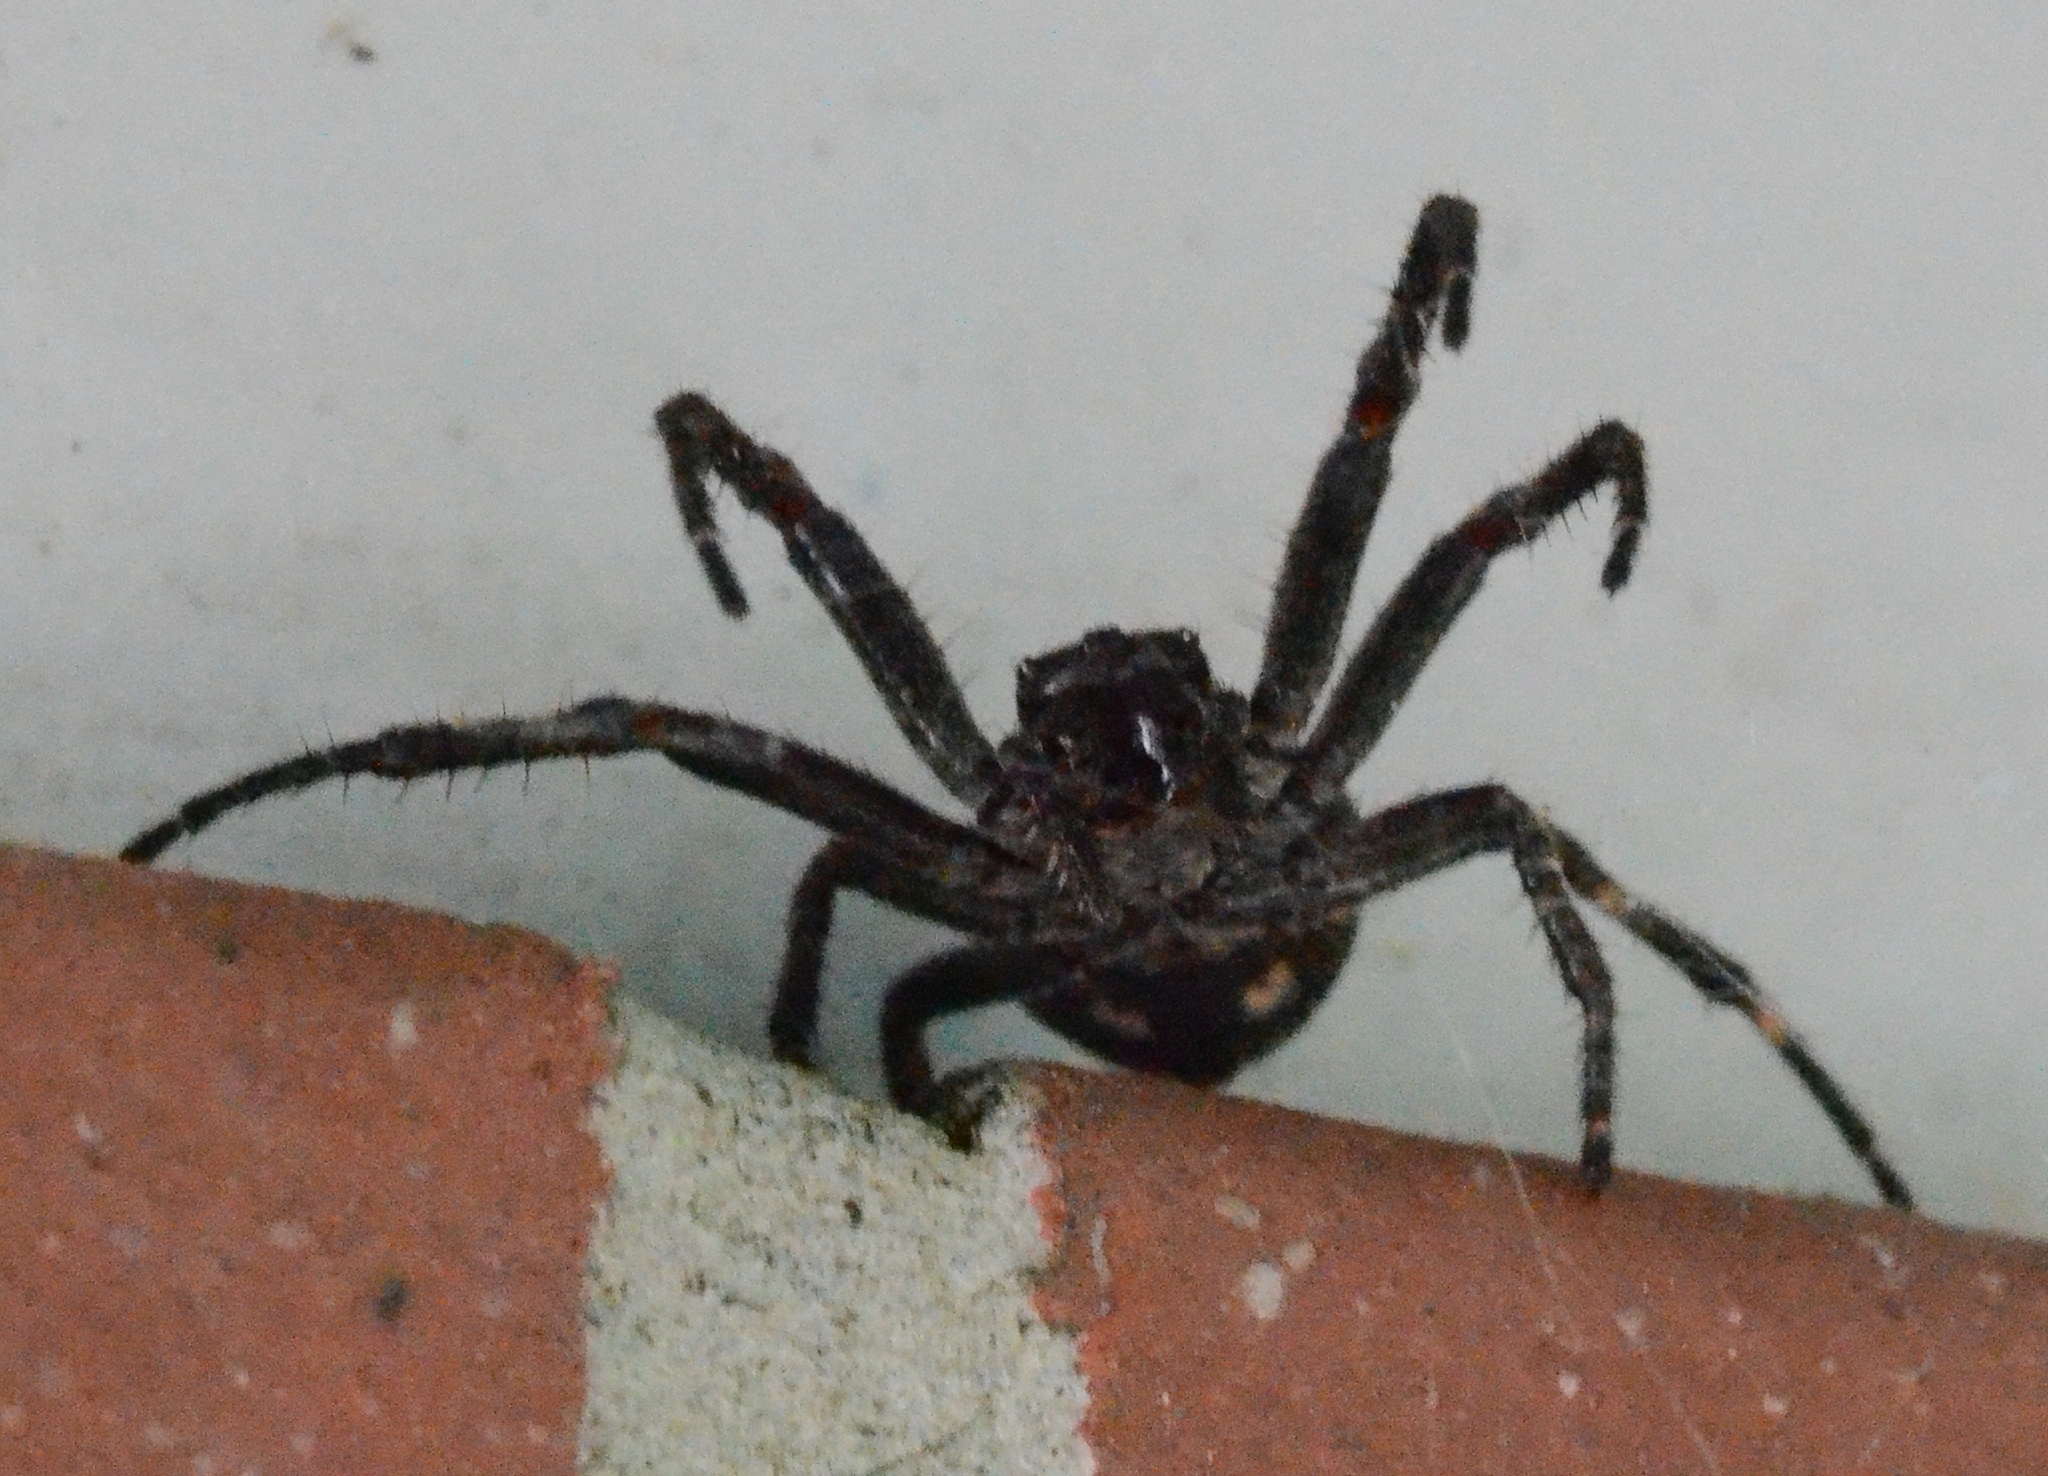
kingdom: Animalia
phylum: Arthropoda
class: Arachnida
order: Araneae
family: Araneidae
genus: Nuctenea
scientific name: Nuctenea umbratica
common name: Toad spider
